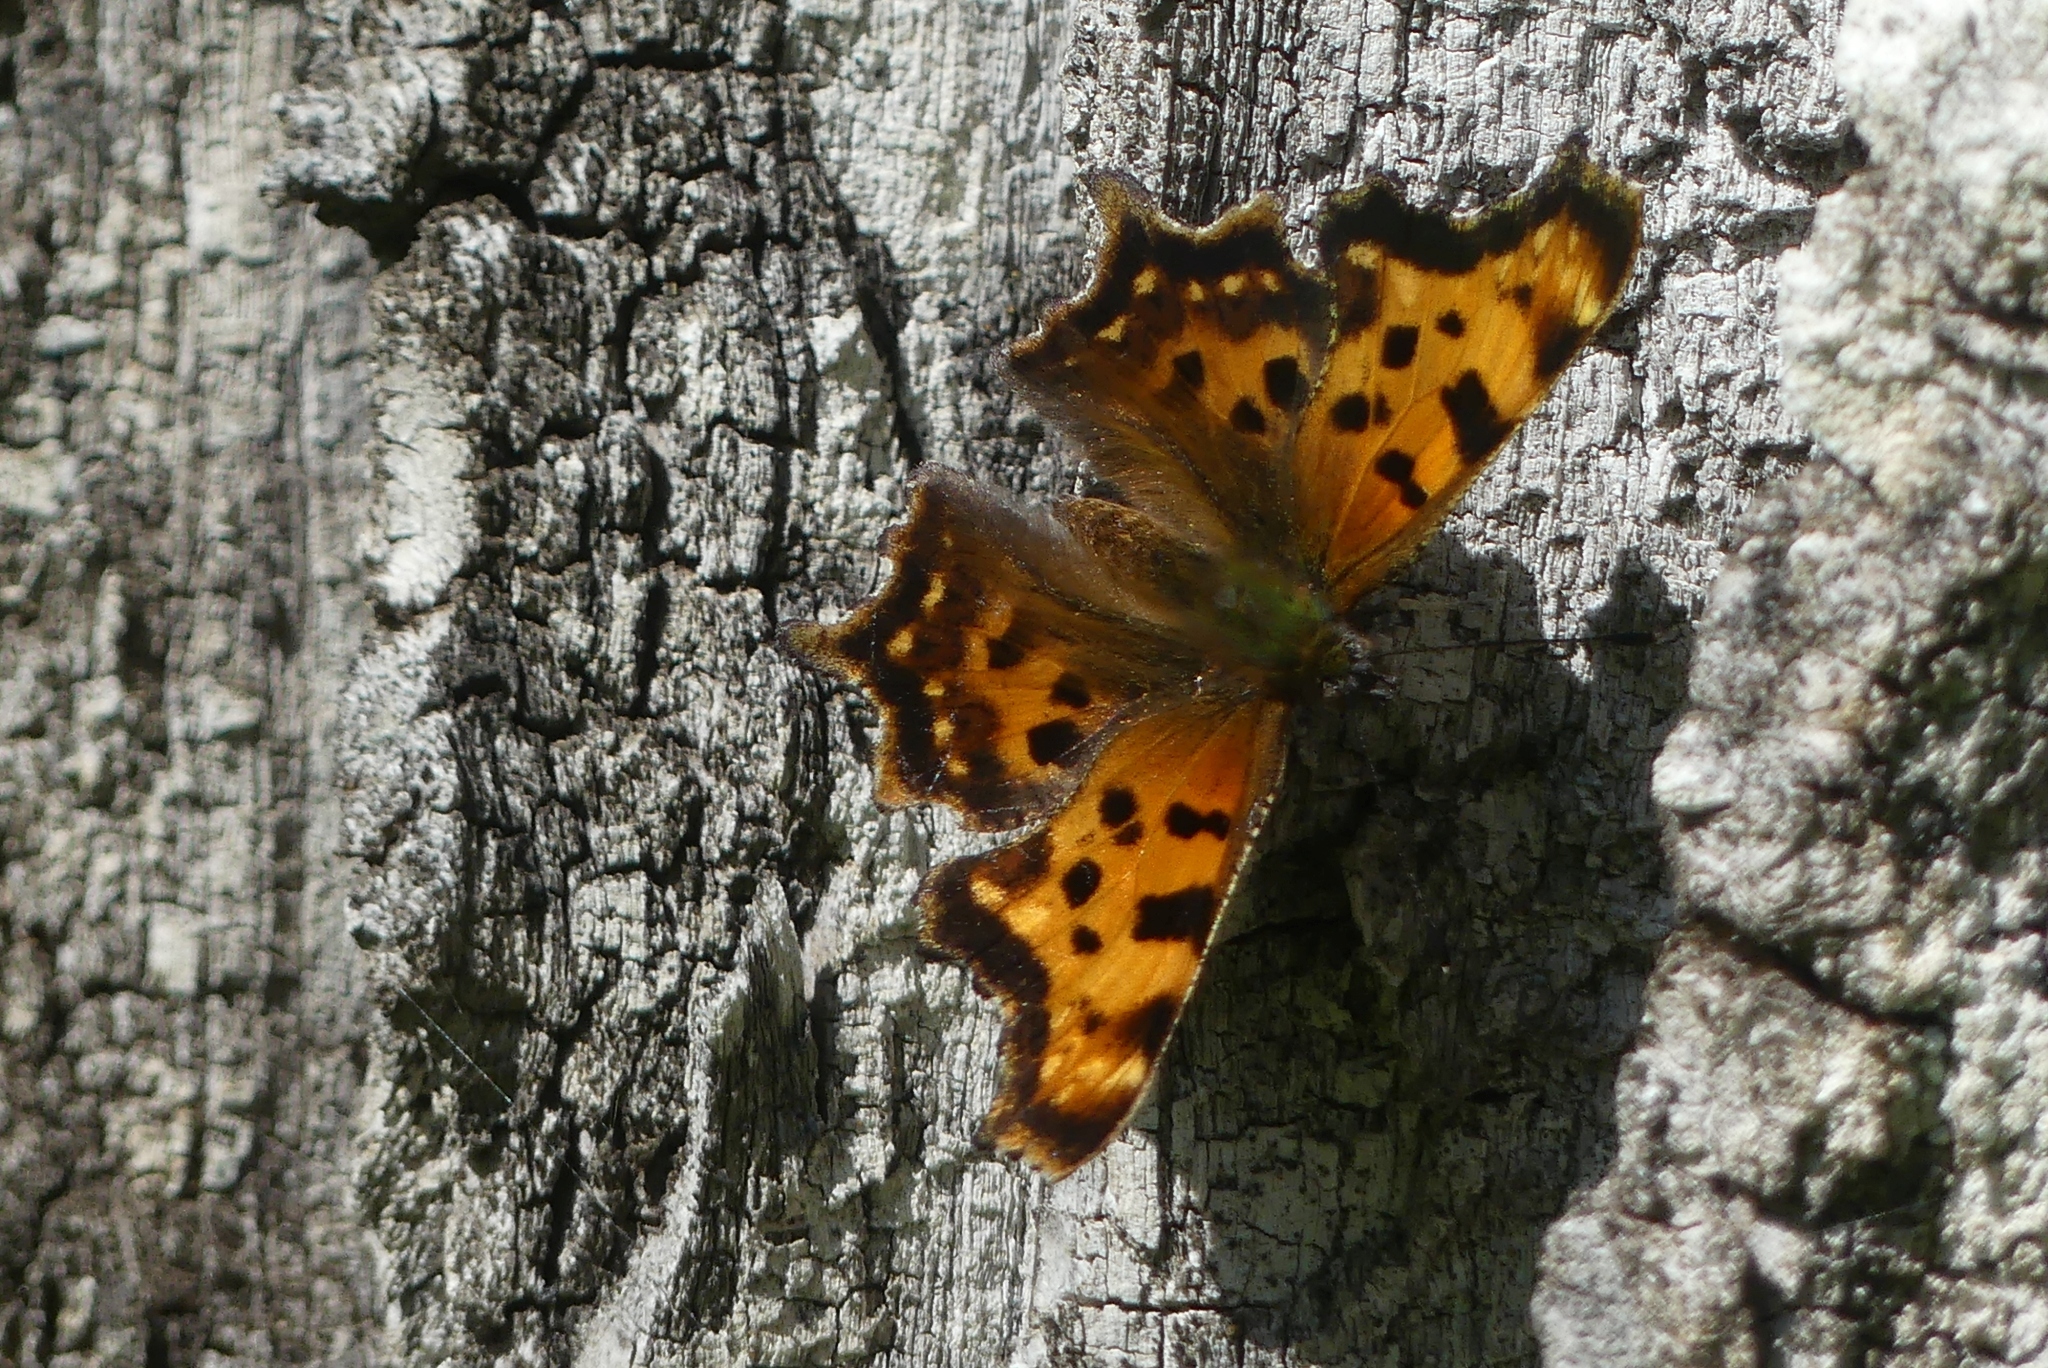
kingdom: Animalia
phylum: Arthropoda
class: Insecta
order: Lepidoptera
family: Nymphalidae
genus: Polygonia
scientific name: Polygonia faunus
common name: Green comma
